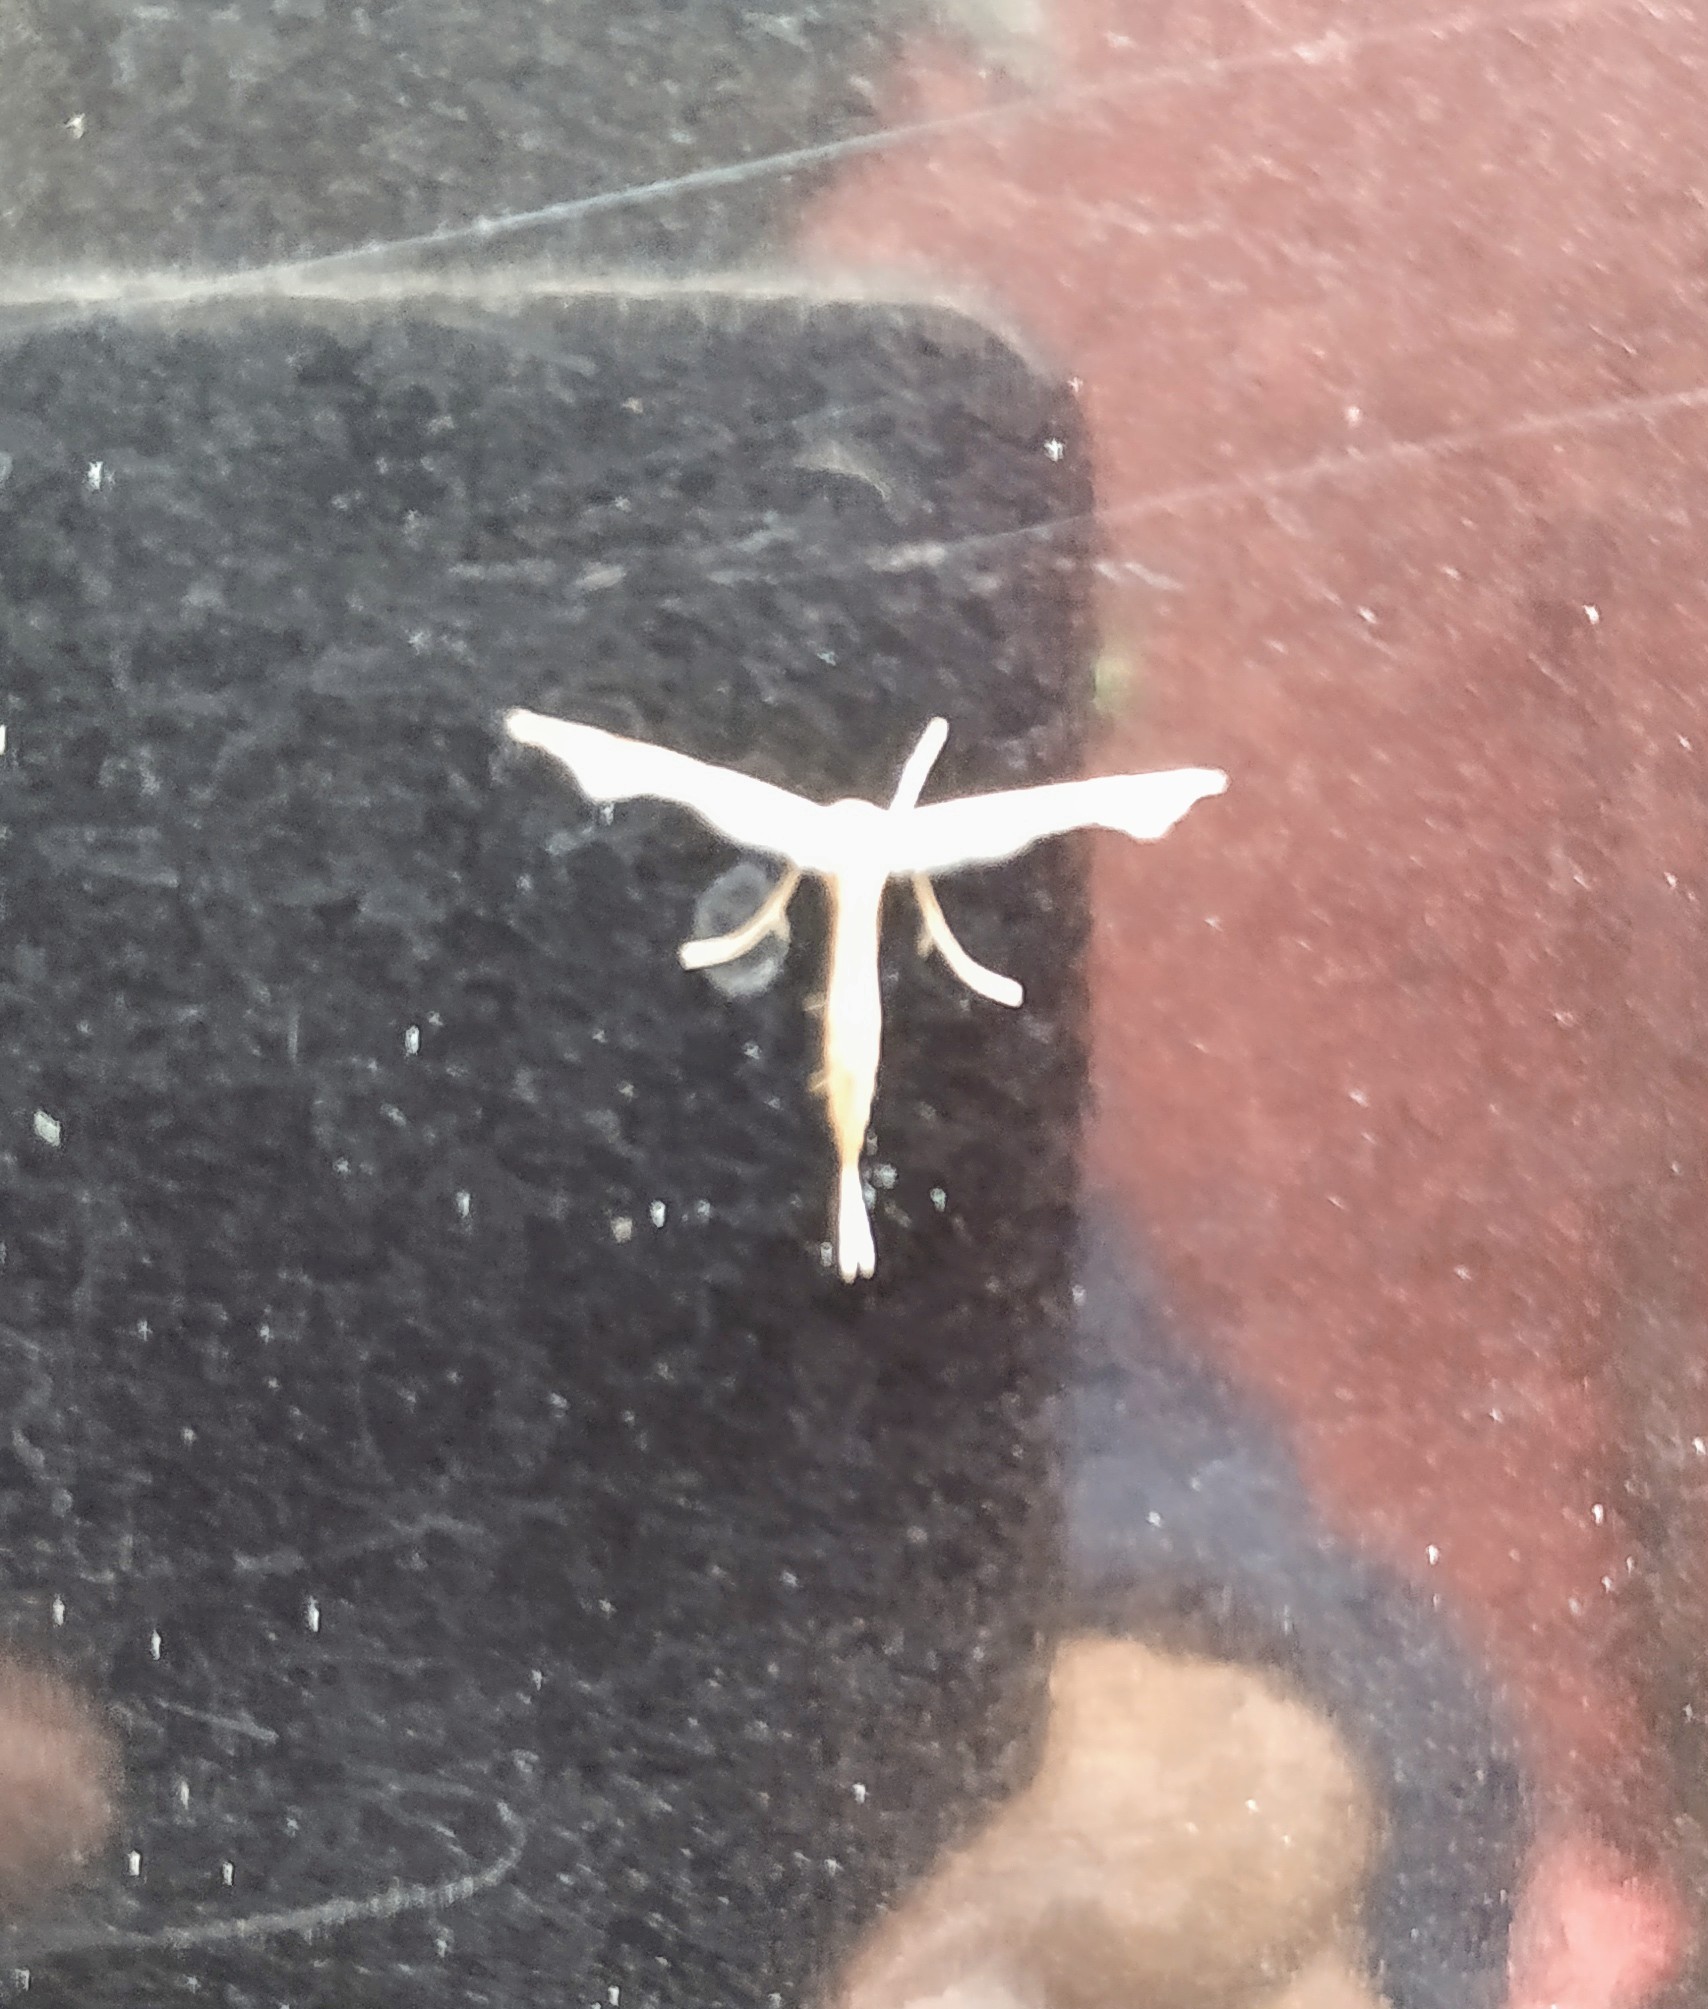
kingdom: Animalia
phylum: Arthropoda
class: Insecta
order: Lepidoptera
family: Pterophoridae
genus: Hellinsia
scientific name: Hellinsia homodactylus
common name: Plain plume moth
